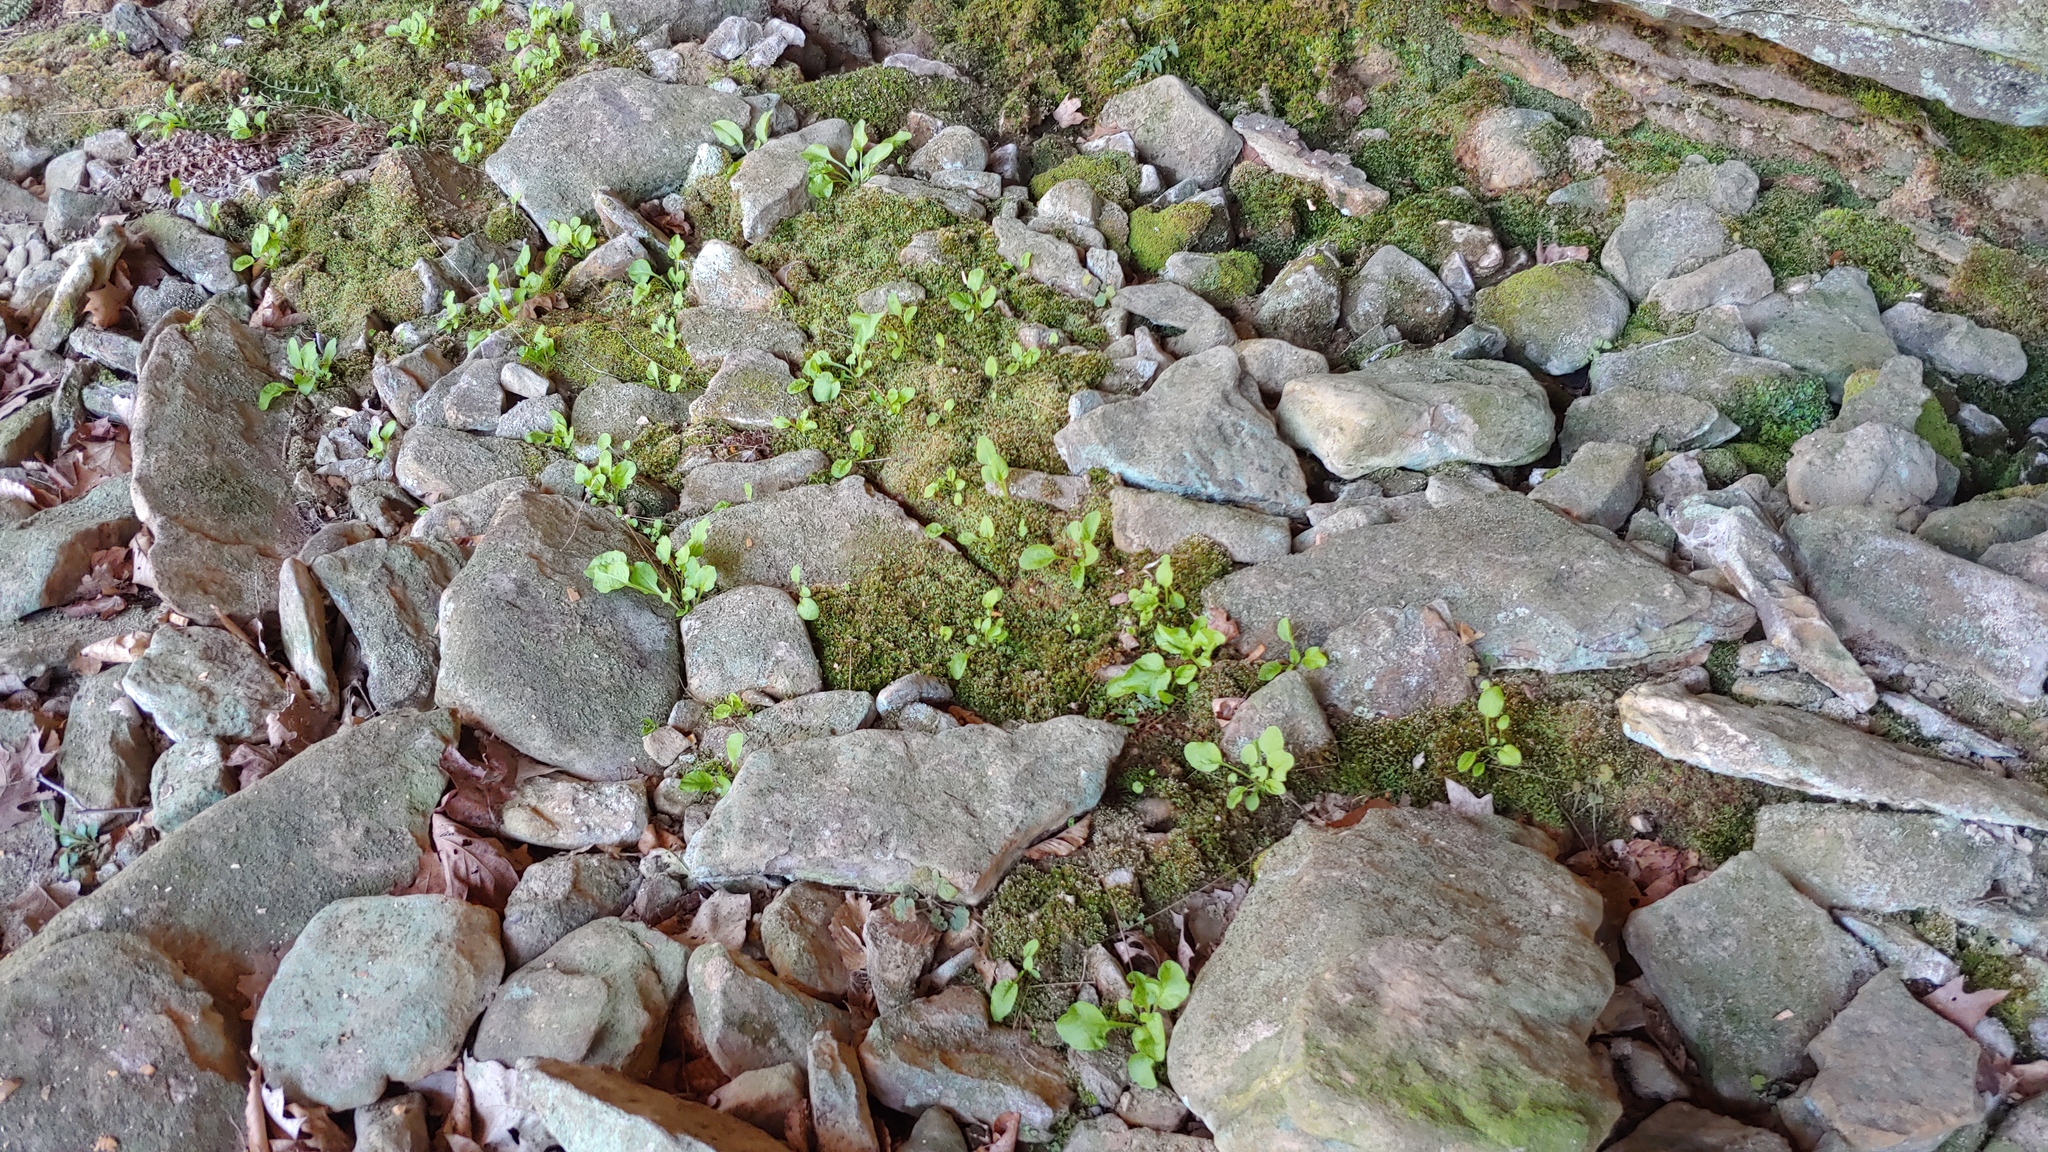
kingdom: Plantae
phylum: Tracheophyta
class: Magnoliopsida
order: Ericales
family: Primulaceae
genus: Dodecatheon
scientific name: Dodecatheon frenchii
